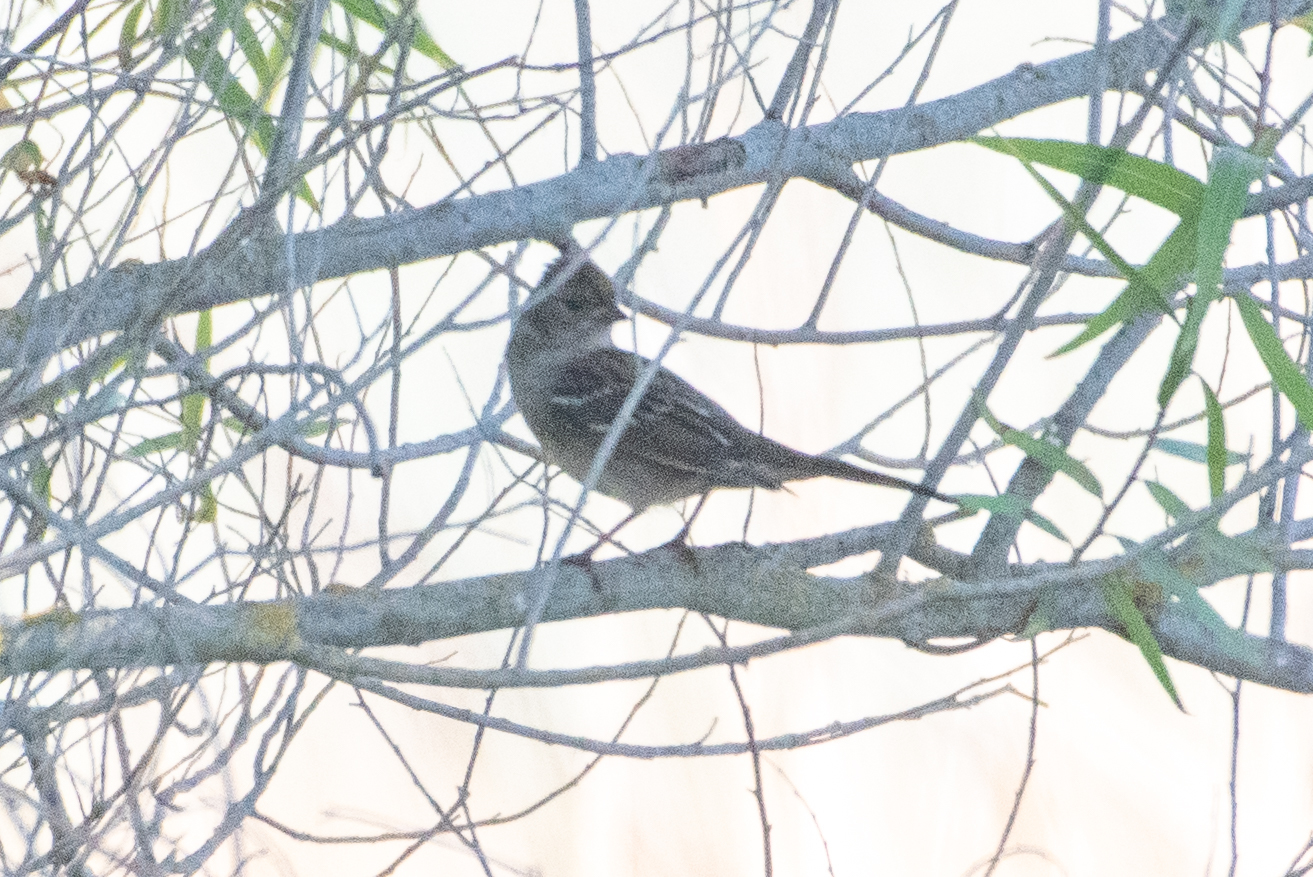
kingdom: Animalia
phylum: Chordata
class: Aves
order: Passeriformes
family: Passerellidae
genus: Zonotrichia
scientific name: Zonotrichia atricapilla
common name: Golden-crowned sparrow
